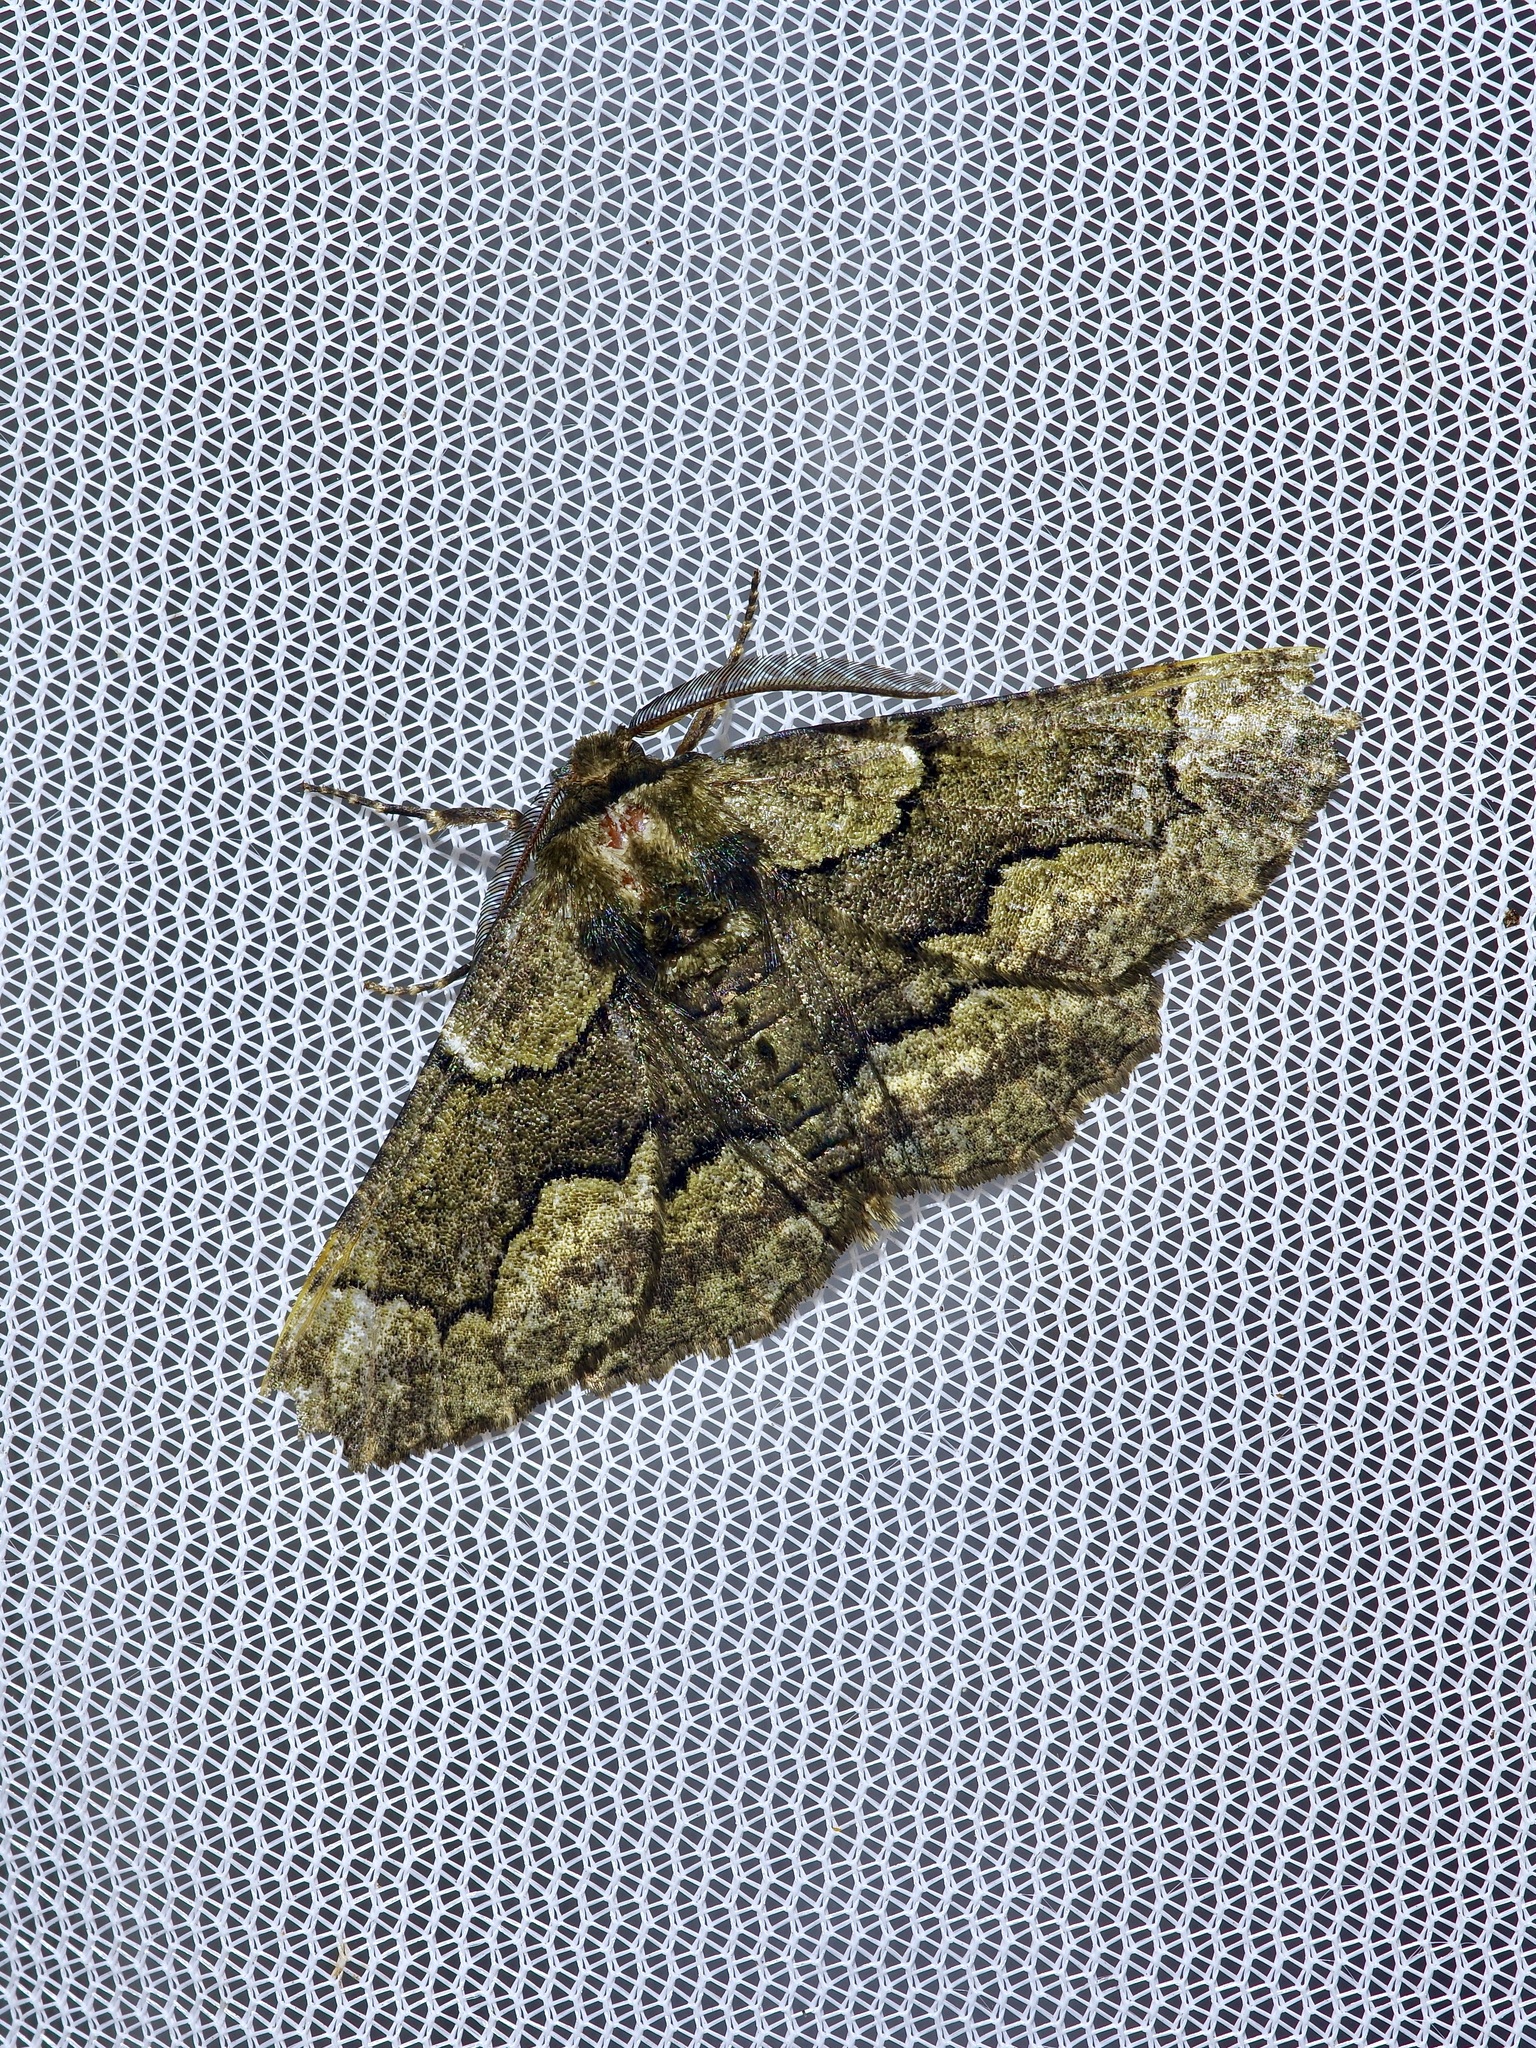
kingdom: Animalia
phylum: Arthropoda
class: Insecta
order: Lepidoptera
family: Geometridae
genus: Phaeoura
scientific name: Phaeoura quernaria
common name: Oak beauty
